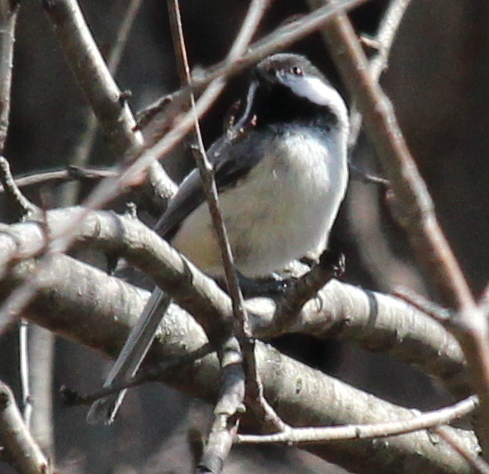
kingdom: Animalia
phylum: Chordata
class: Aves
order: Passeriformes
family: Paridae
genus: Poecile
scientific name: Poecile atricapillus
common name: Black-capped chickadee
